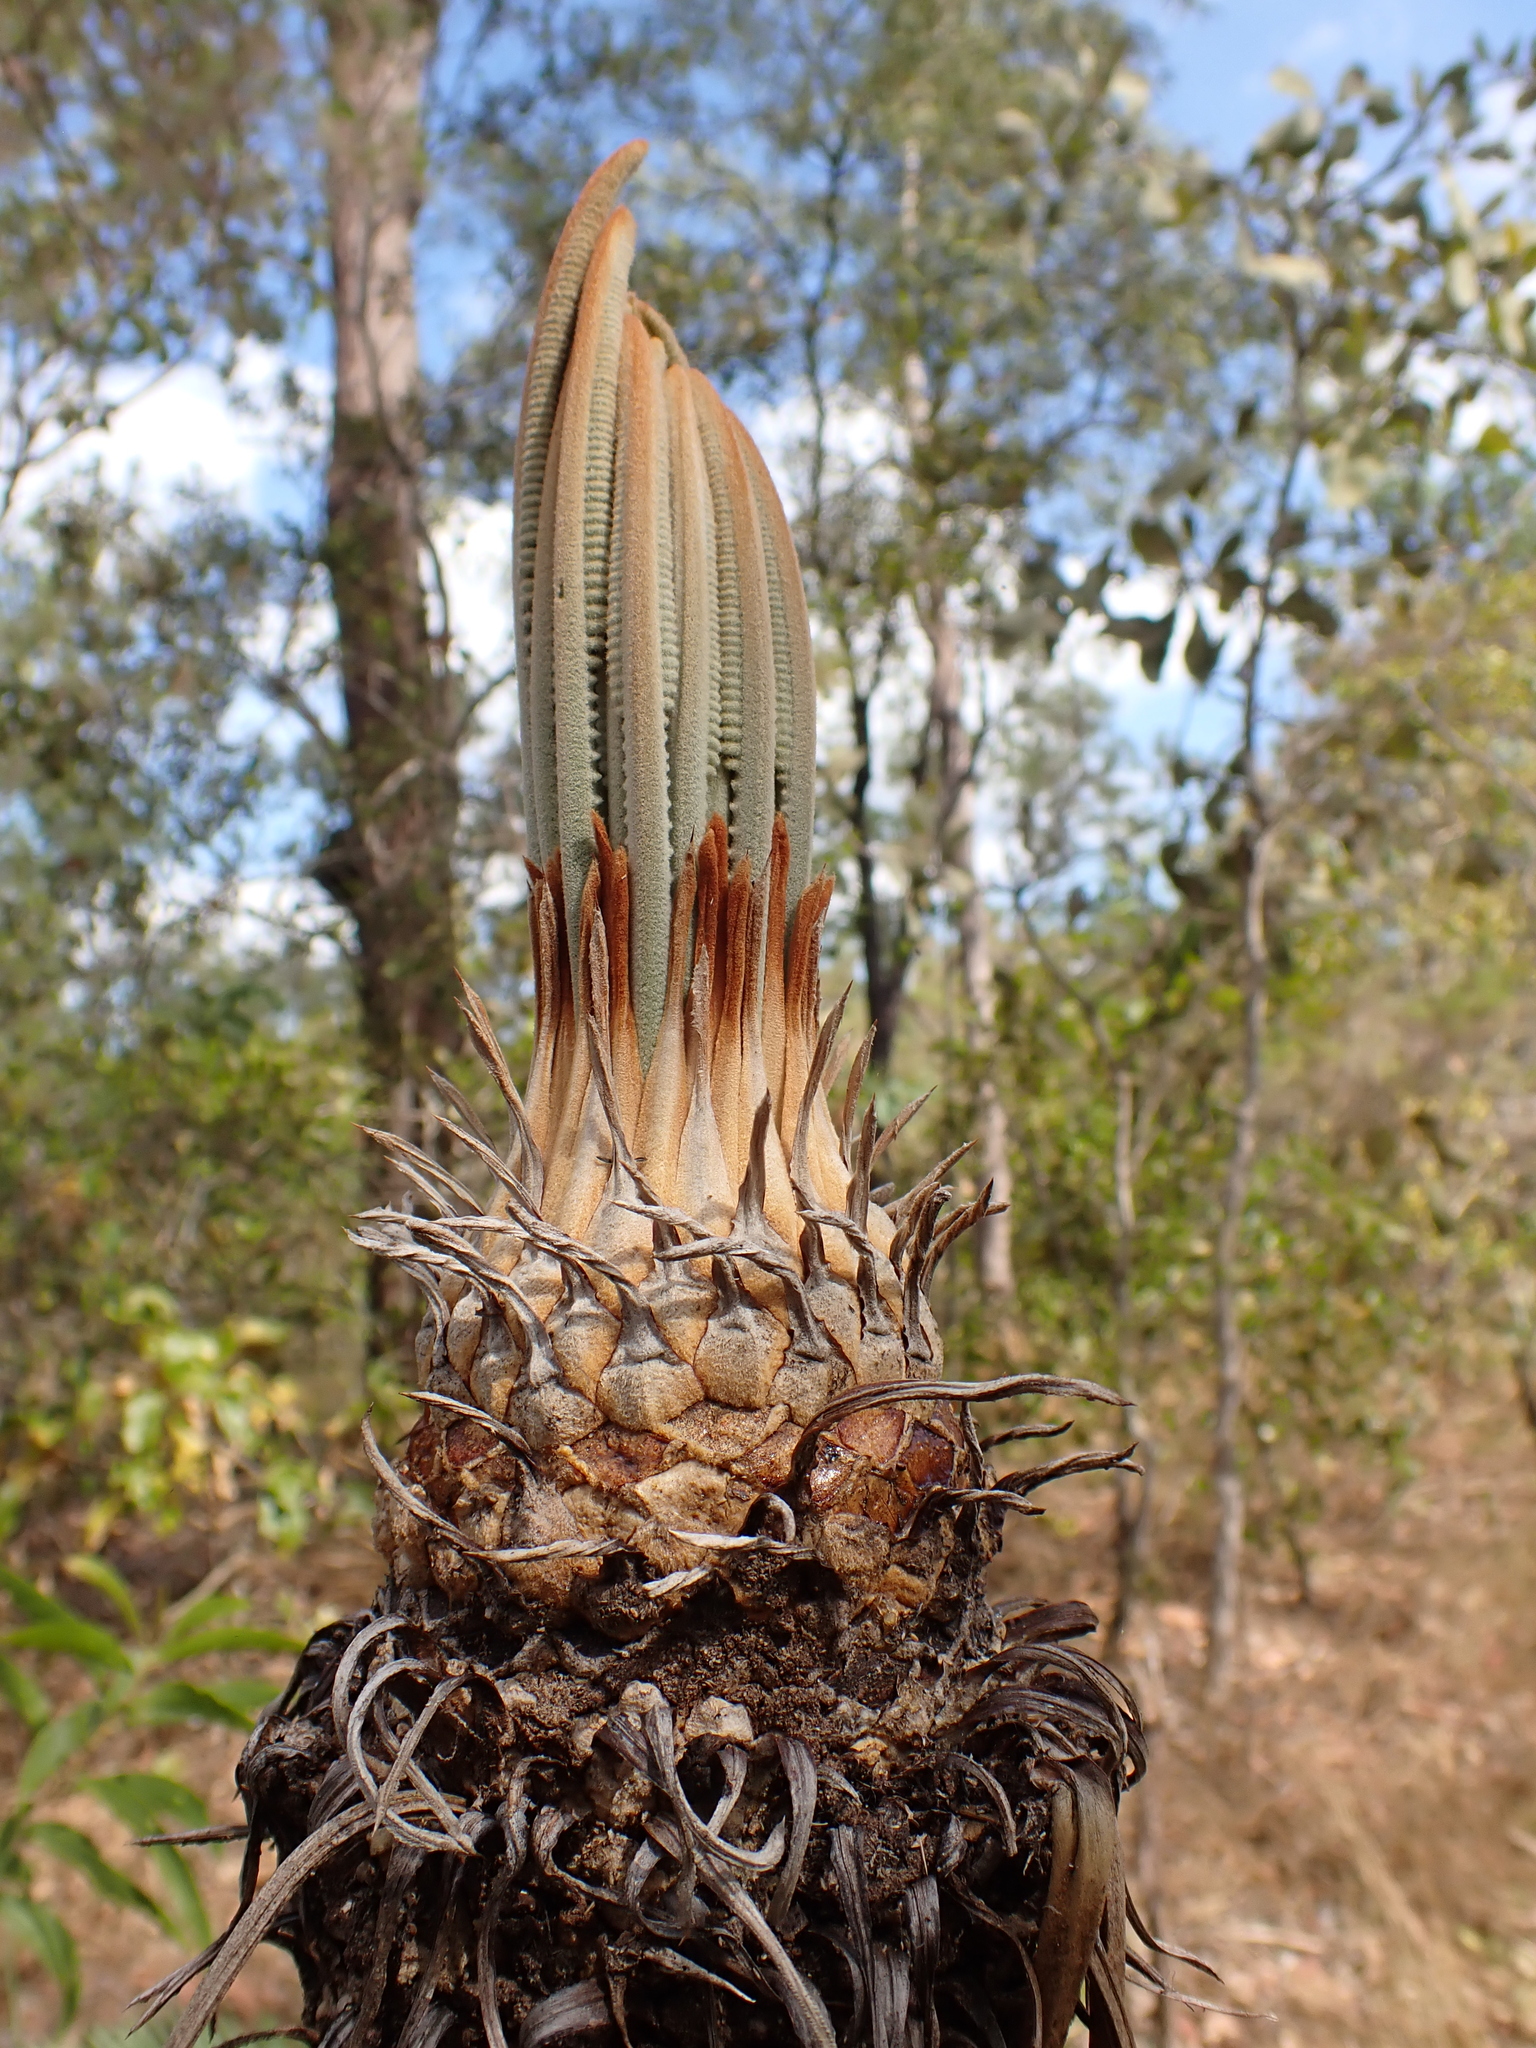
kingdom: Plantae
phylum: Tracheophyta
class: Cycadopsida
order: Cycadales
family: Cycadaceae
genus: Cycas
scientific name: Cycas armstrongii
